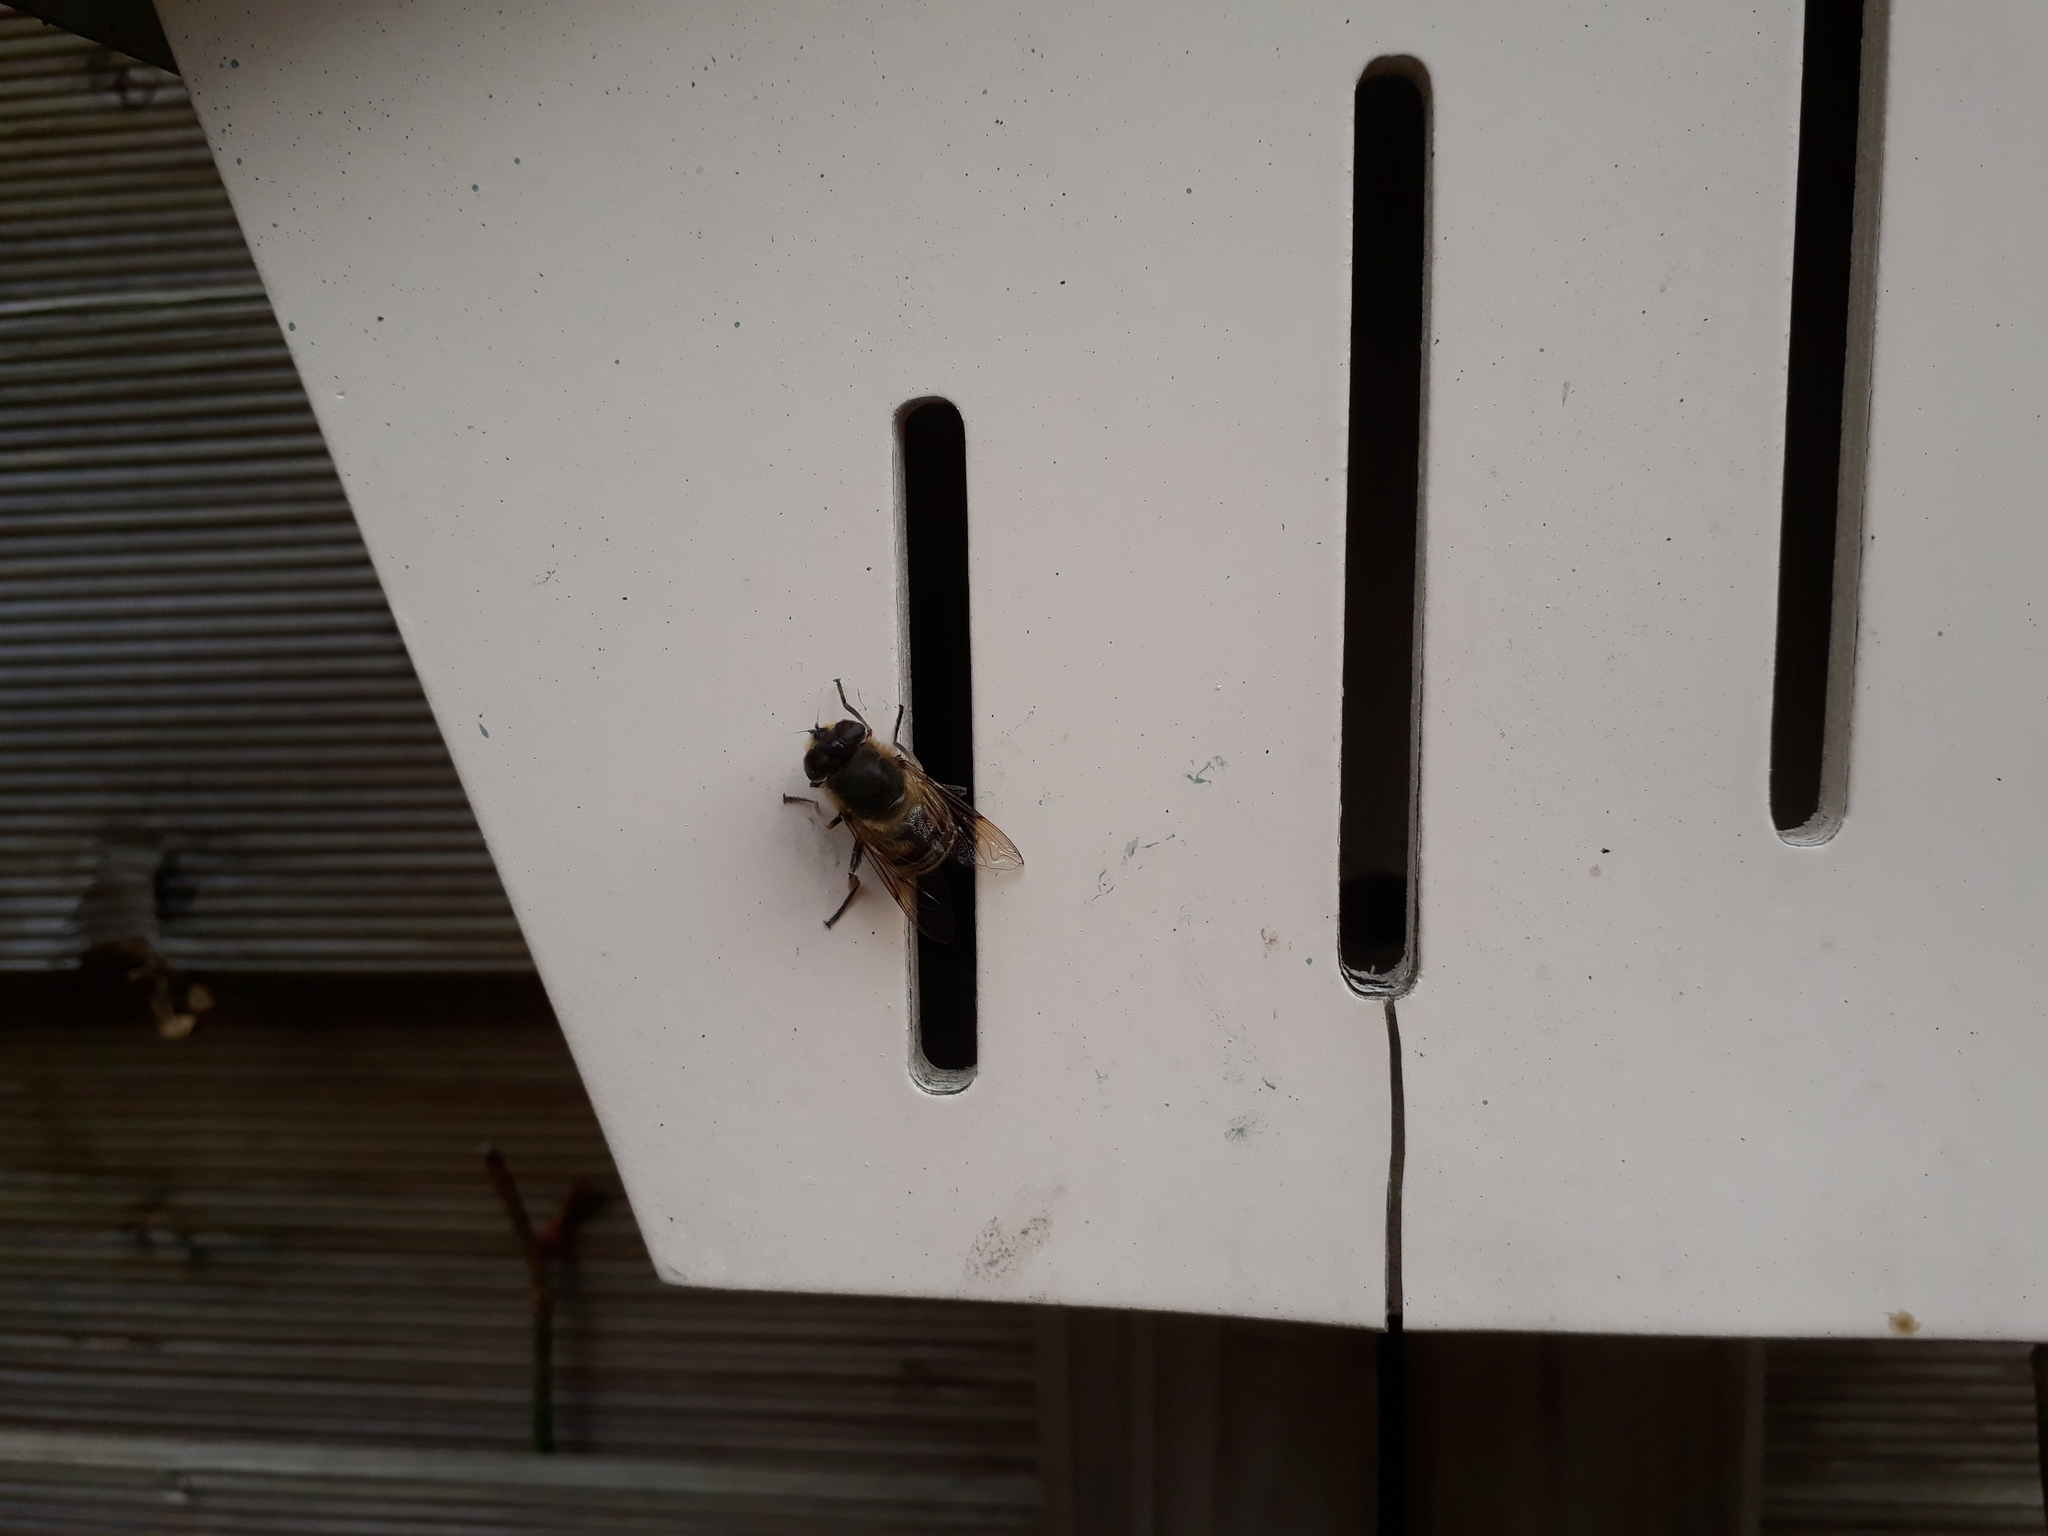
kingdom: Animalia
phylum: Arthropoda
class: Insecta
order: Diptera
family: Syrphidae
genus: Eristalis
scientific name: Eristalis tenax
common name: Drone fly
